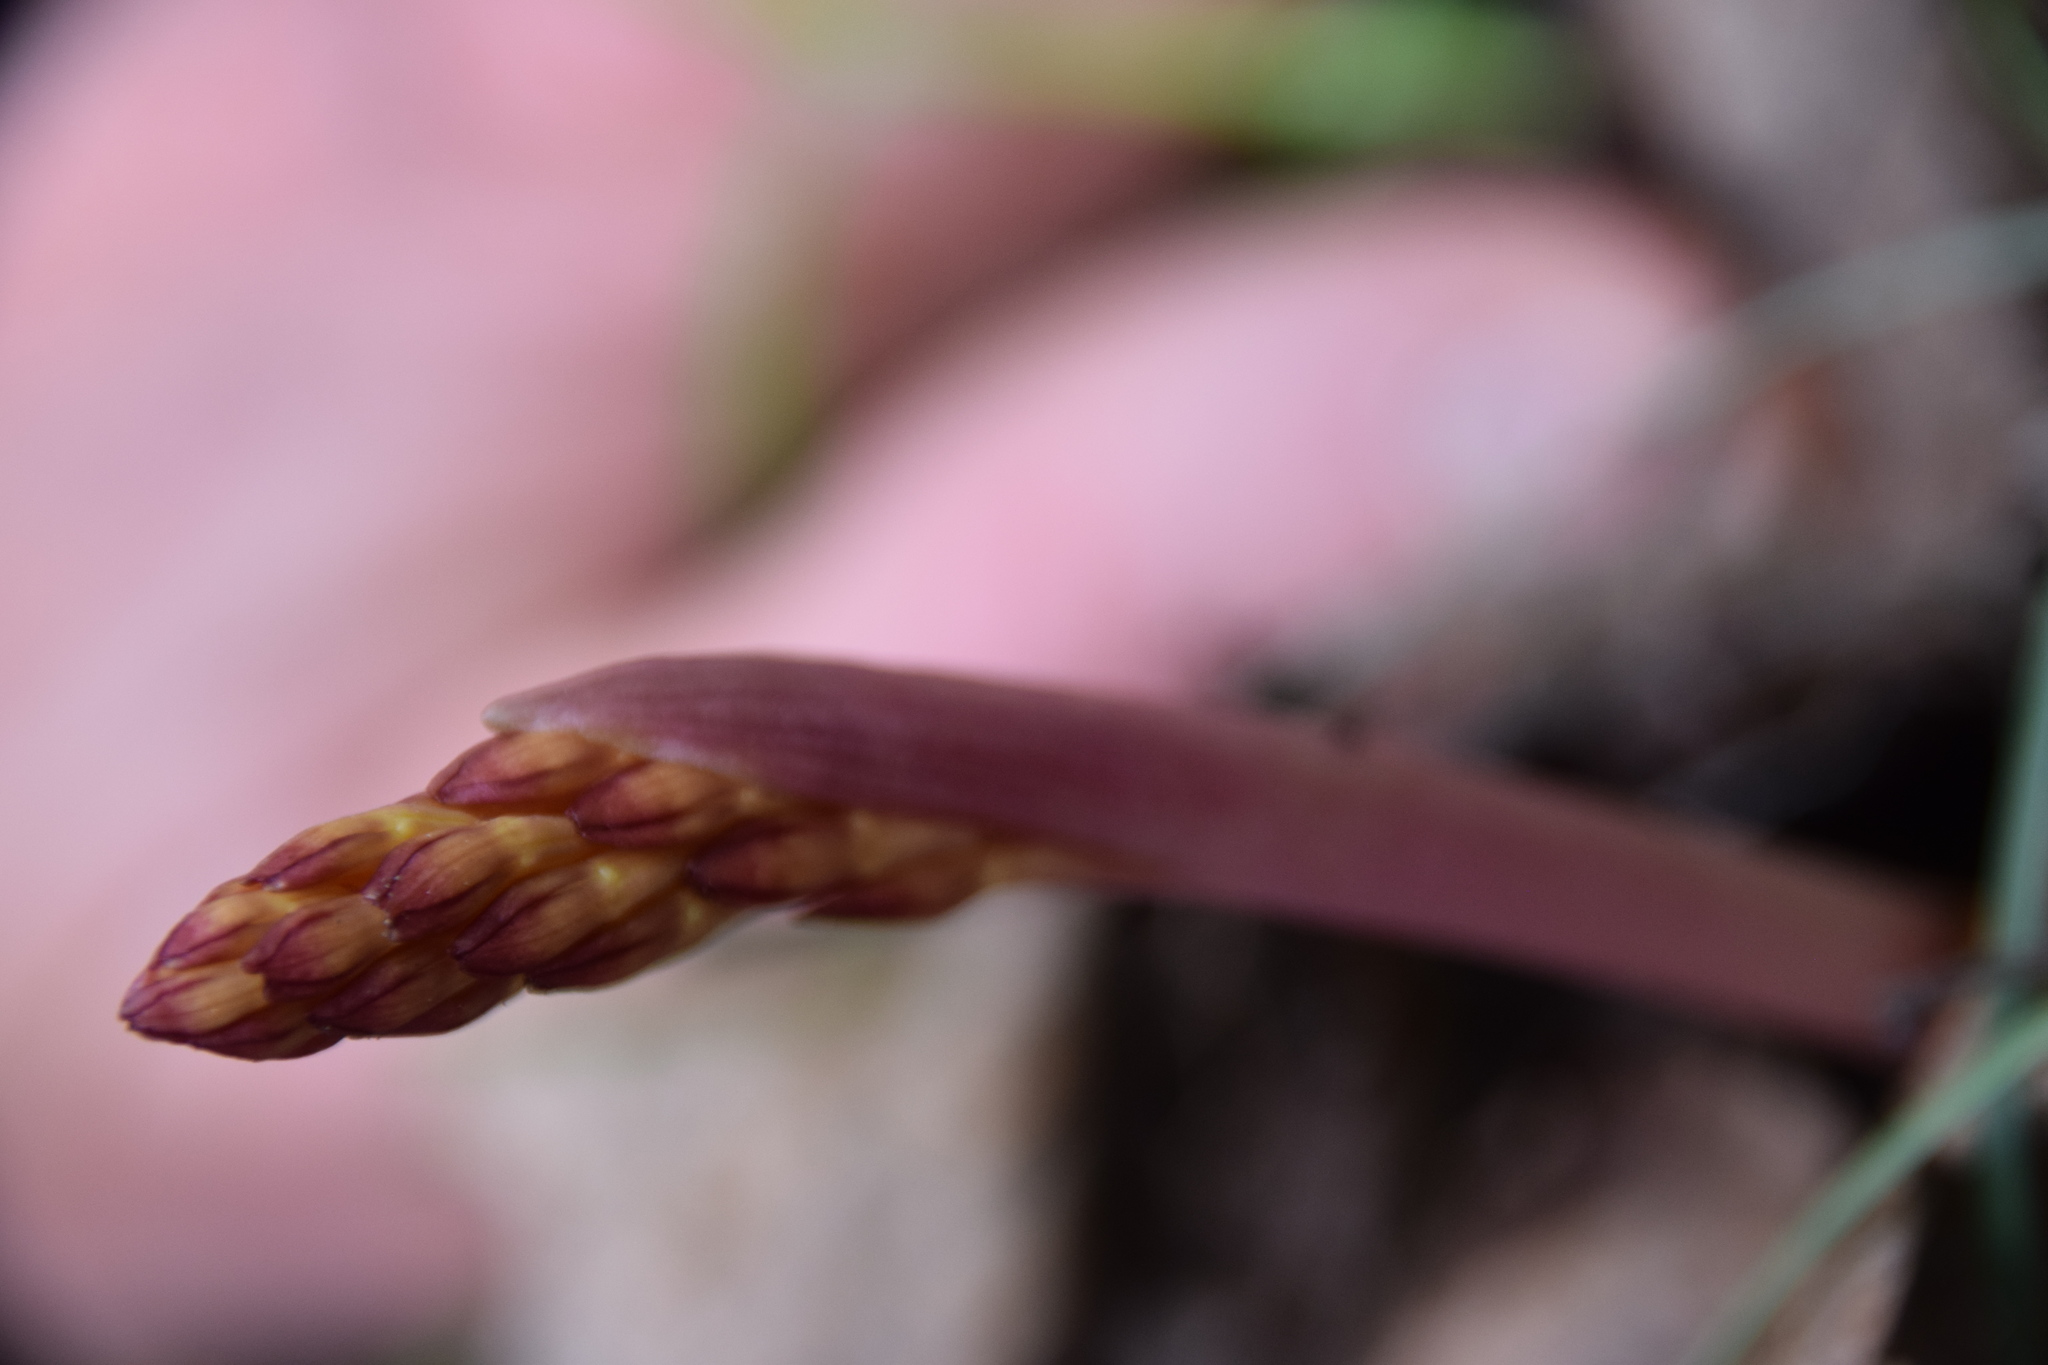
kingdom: Plantae
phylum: Tracheophyta
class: Liliopsida
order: Asparagales
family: Orchidaceae
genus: Corallorhiza
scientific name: Corallorhiza maculata
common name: Spotted coralroot
